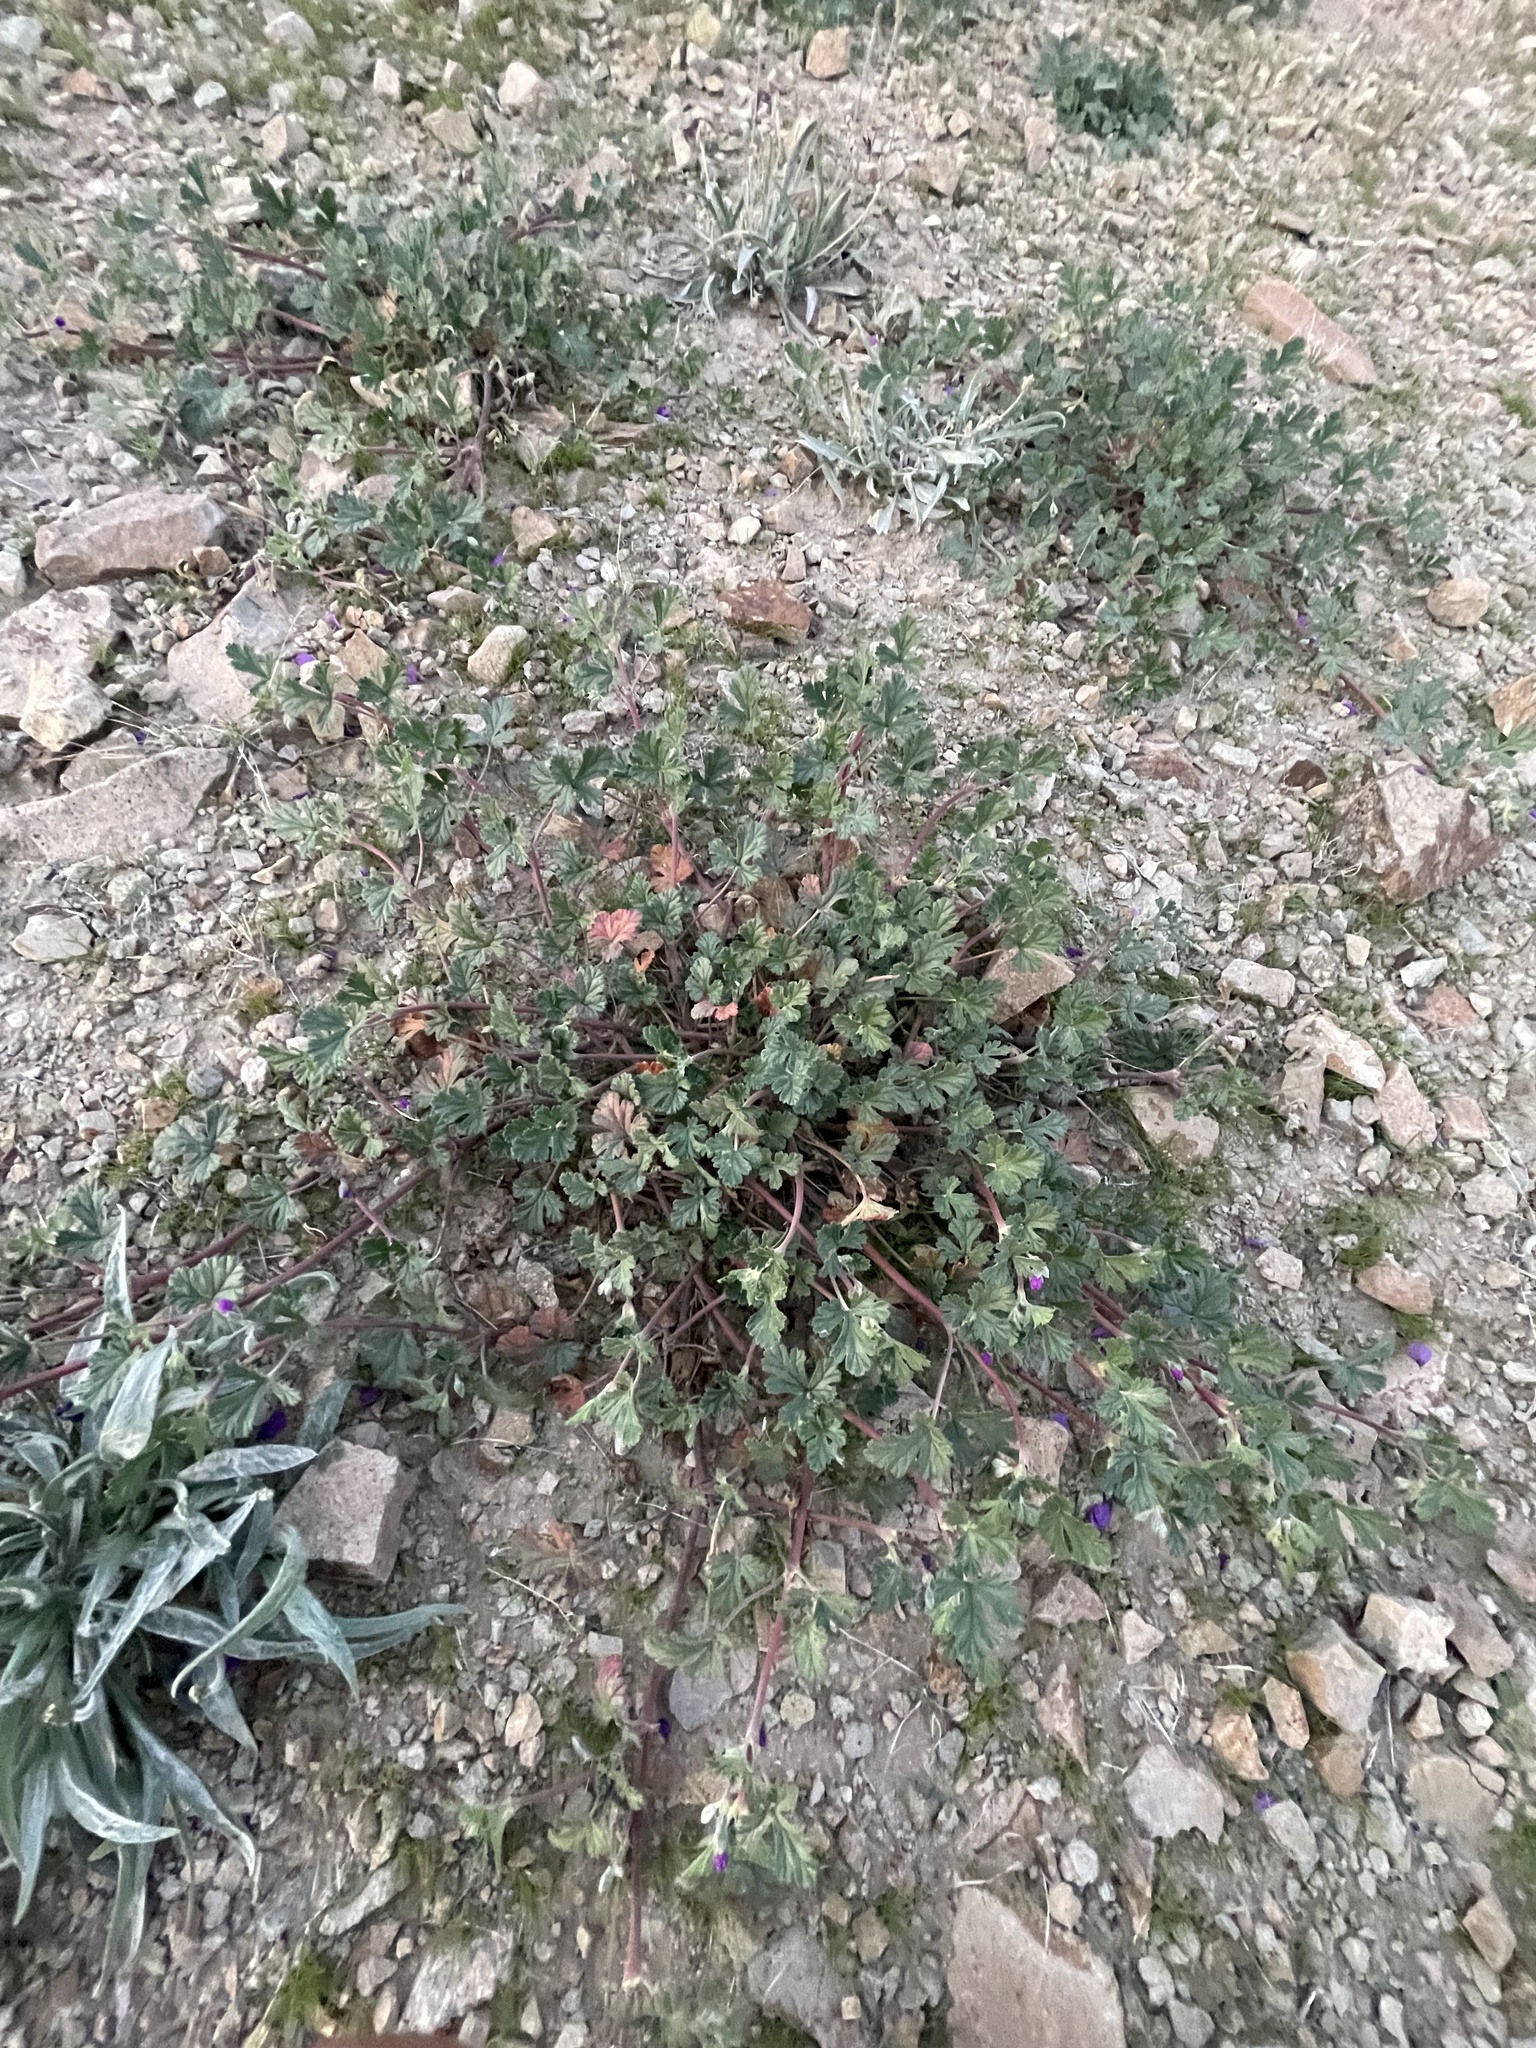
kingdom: Plantae
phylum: Tracheophyta
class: Magnoliopsida
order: Geraniales
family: Geraniaceae
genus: Erodium
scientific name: Erodium texanum
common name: Texas stork's-bill
